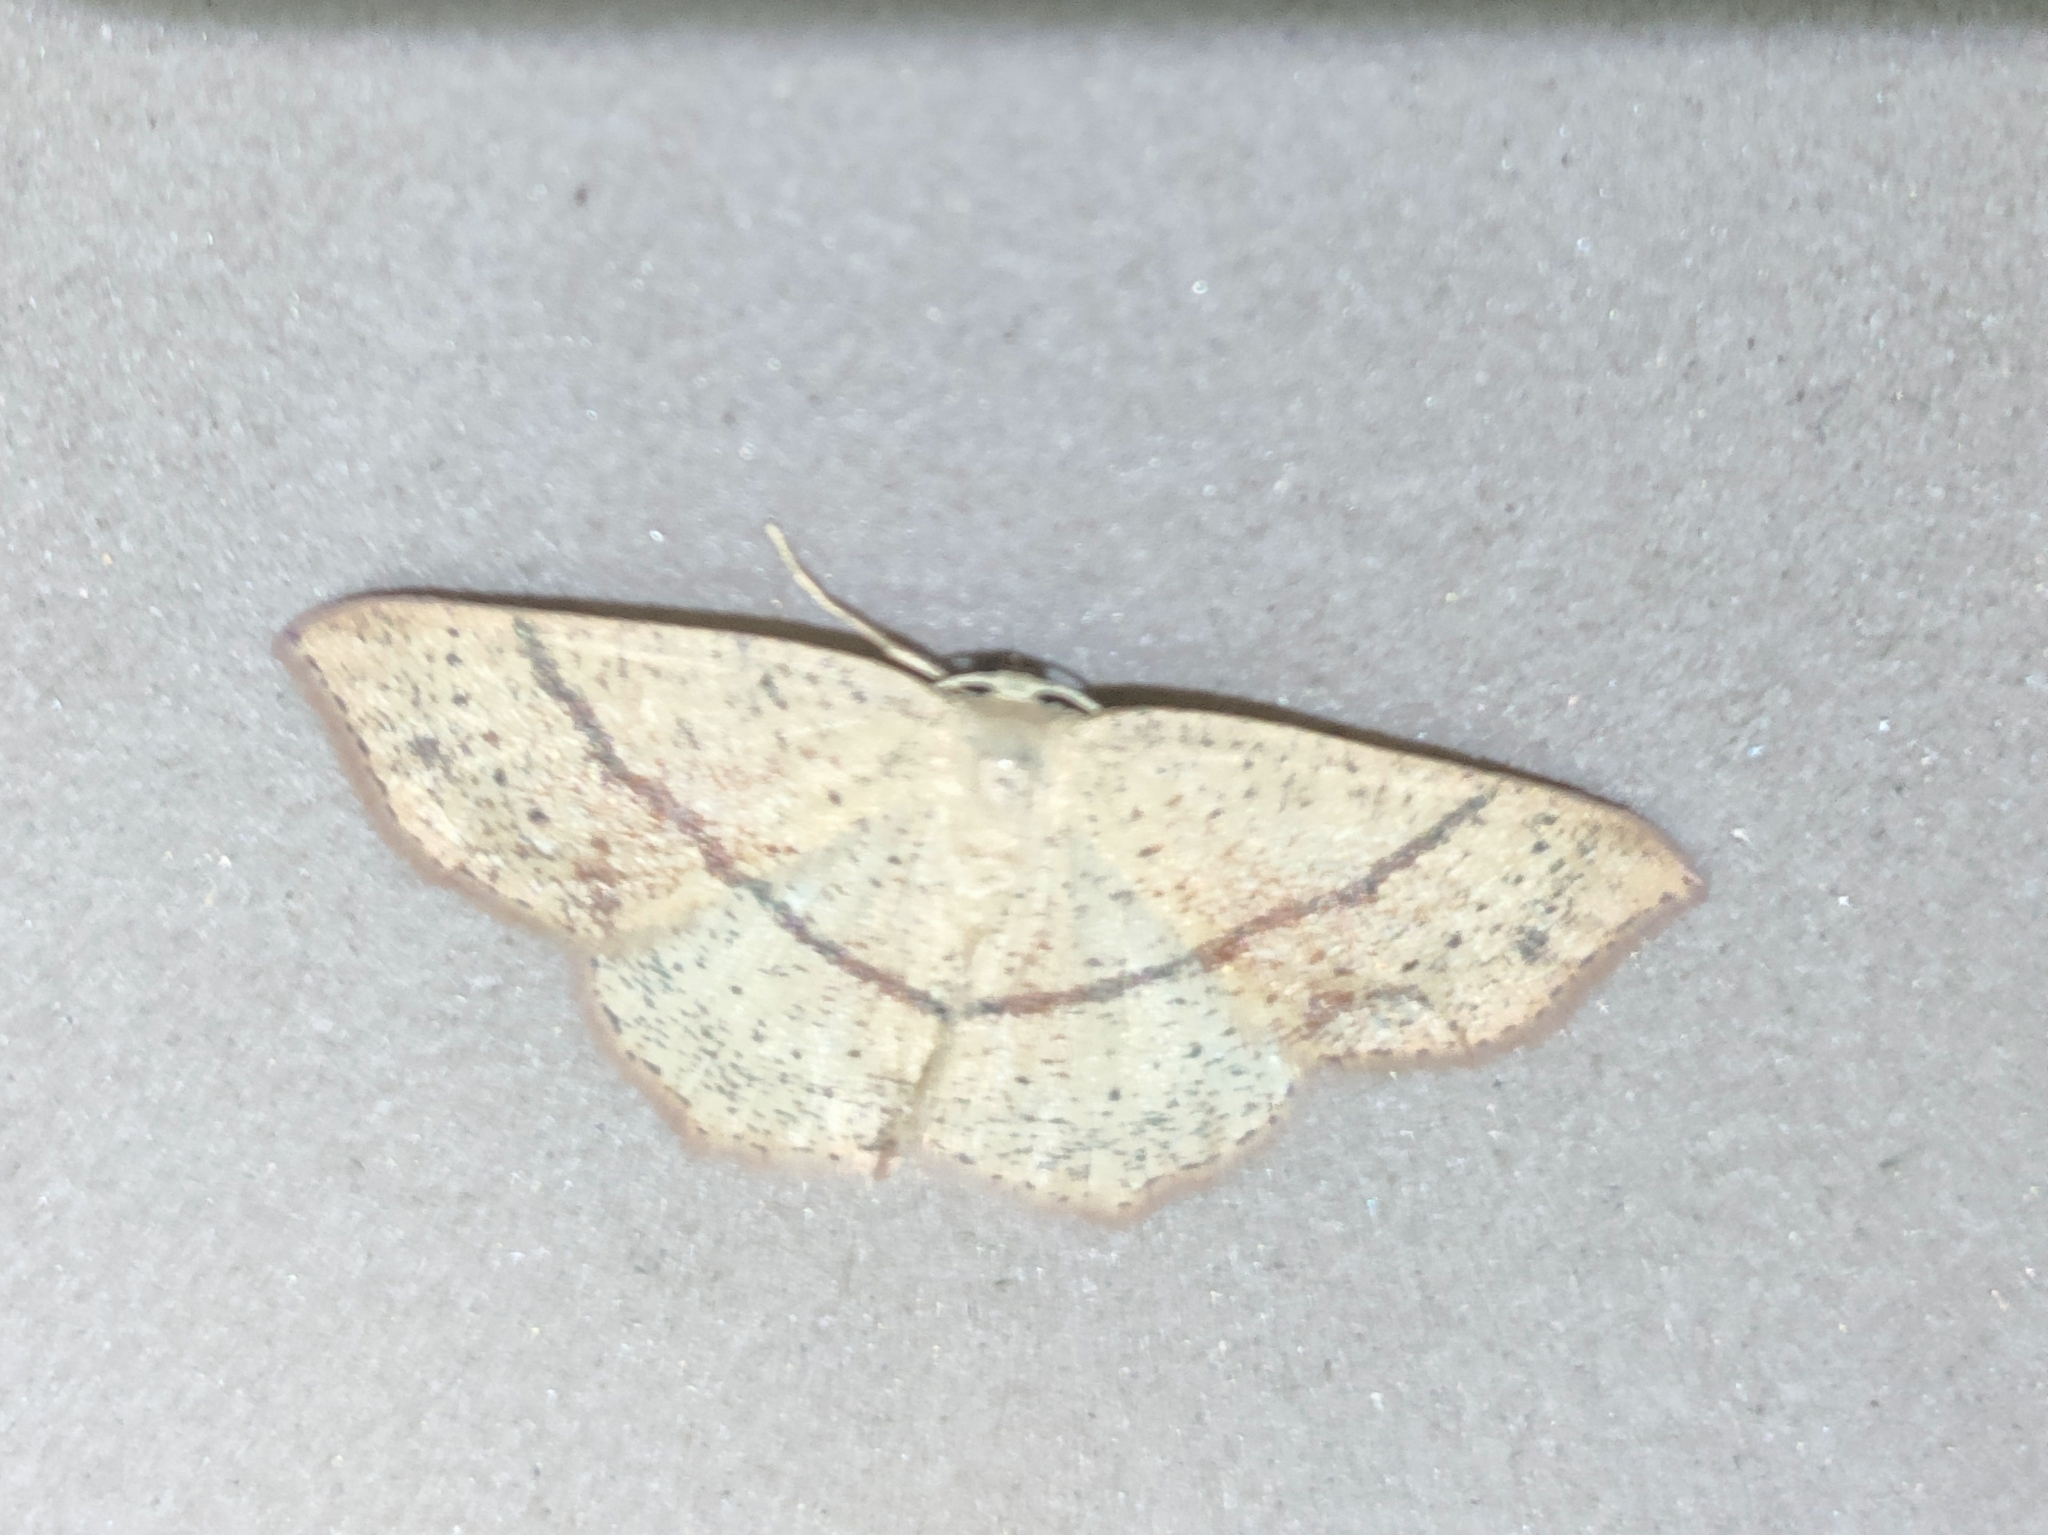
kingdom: Animalia
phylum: Arthropoda
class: Insecta
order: Lepidoptera
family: Geometridae
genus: Cyclophora
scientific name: Cyclophora punctaria
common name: Maiden's blush
